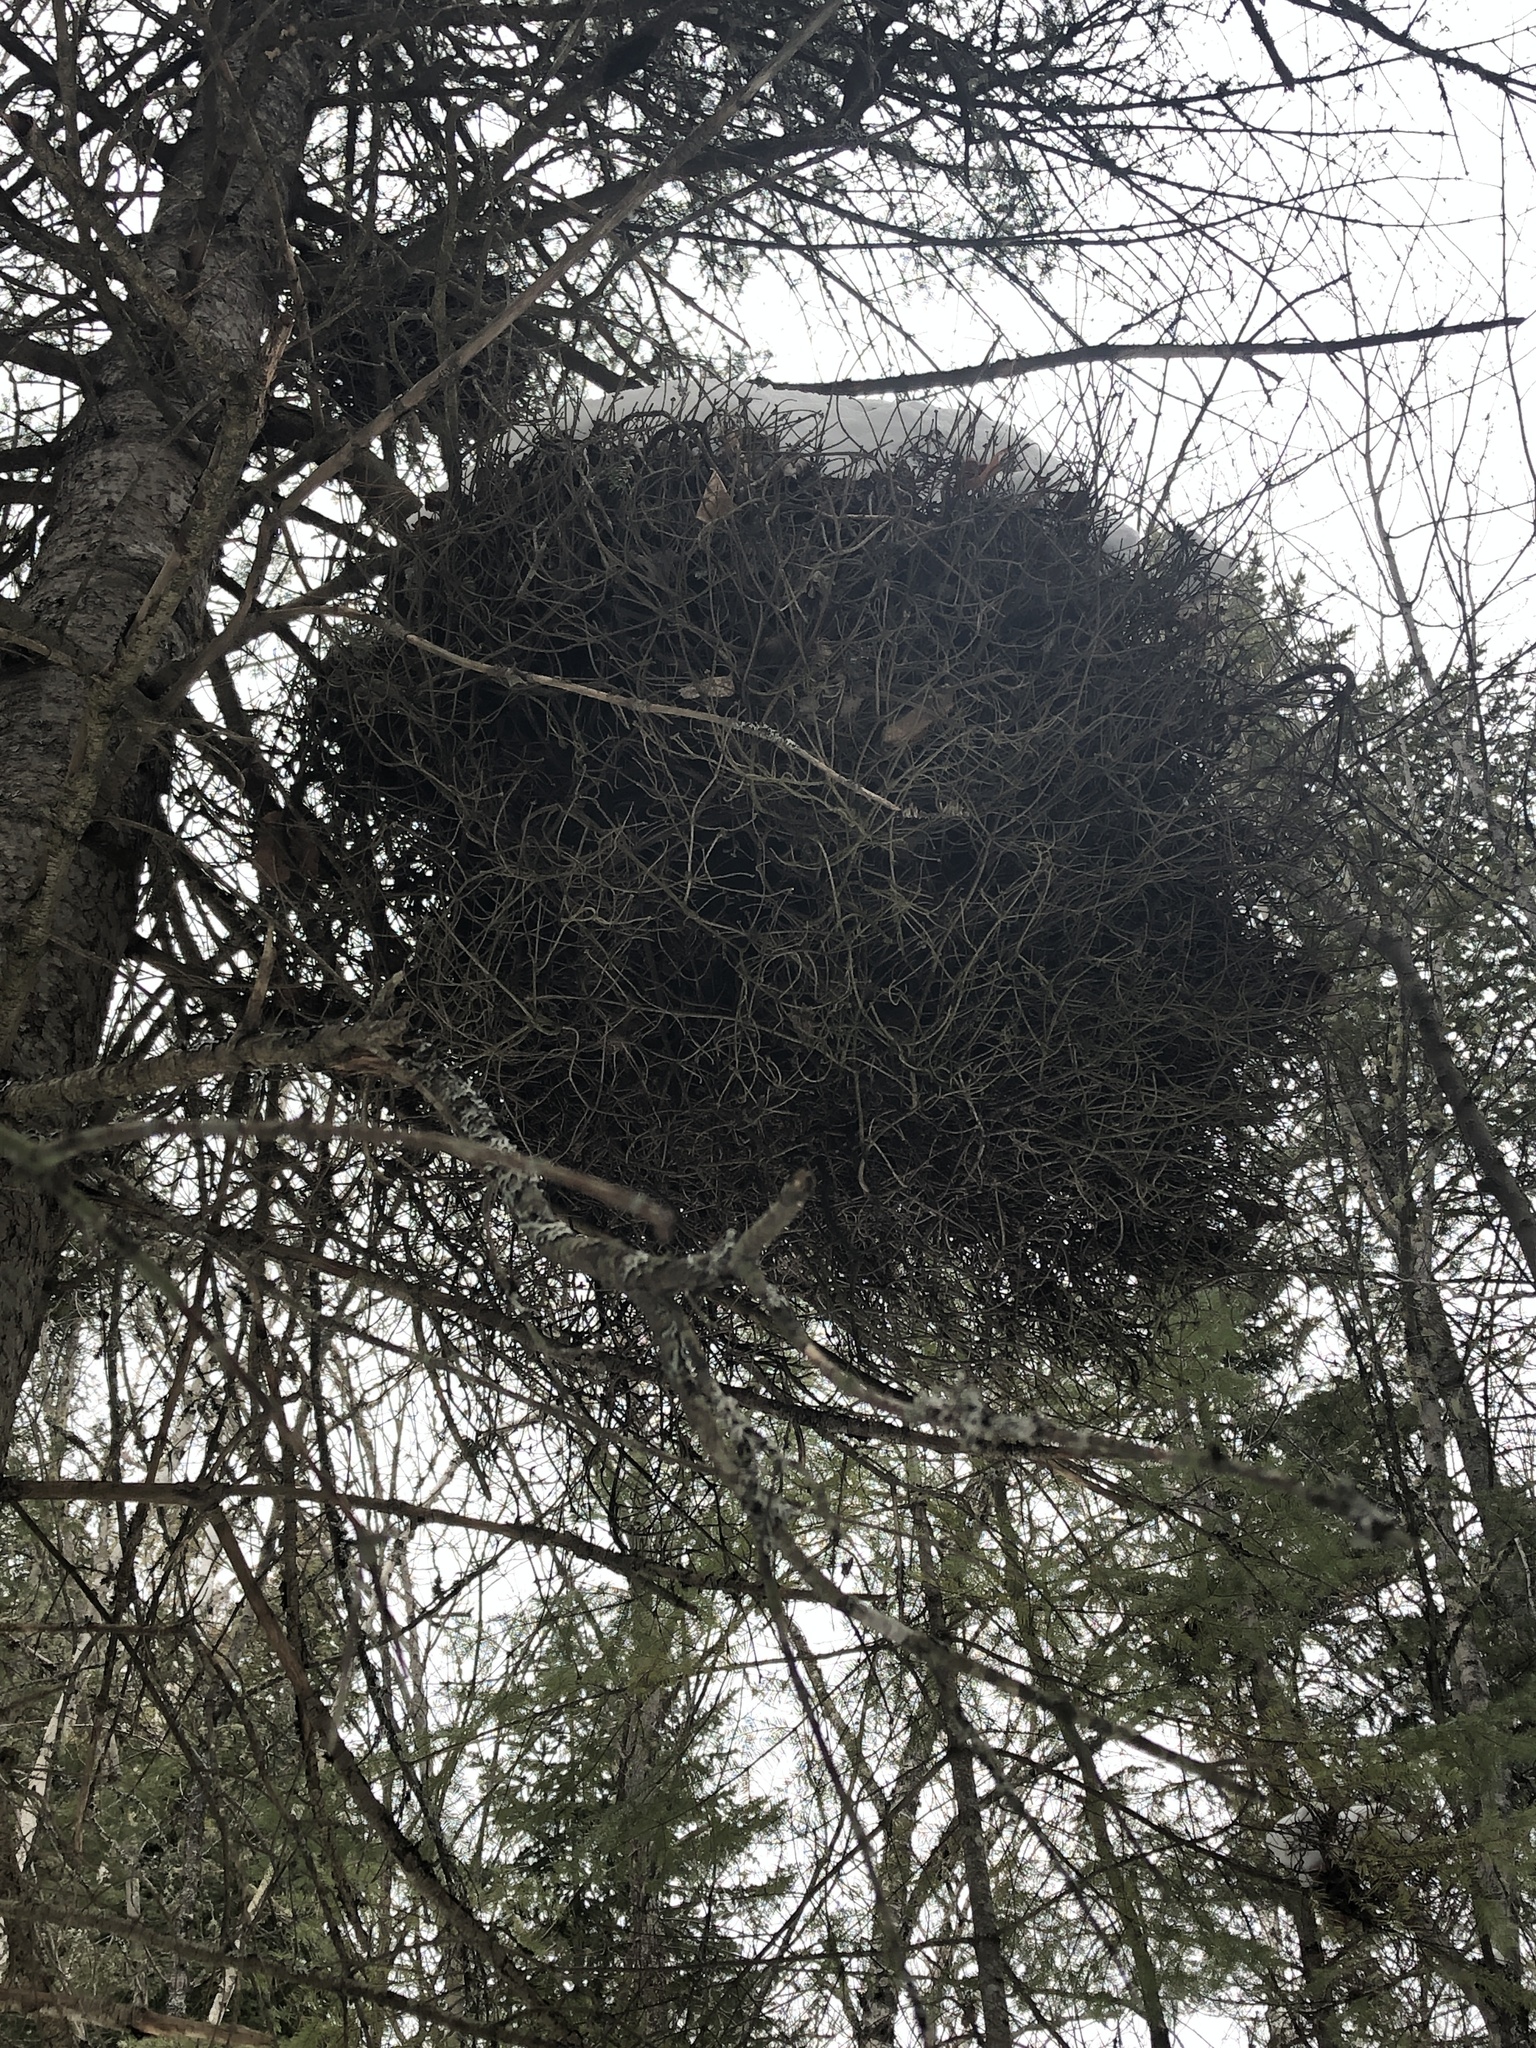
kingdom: Fungi
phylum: Basidiomycota
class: Pucciniomycetes
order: Pucciniales
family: Pucciniastraceae
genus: Melampsorella
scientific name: Melampsorella elatina
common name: Fir broom rust
